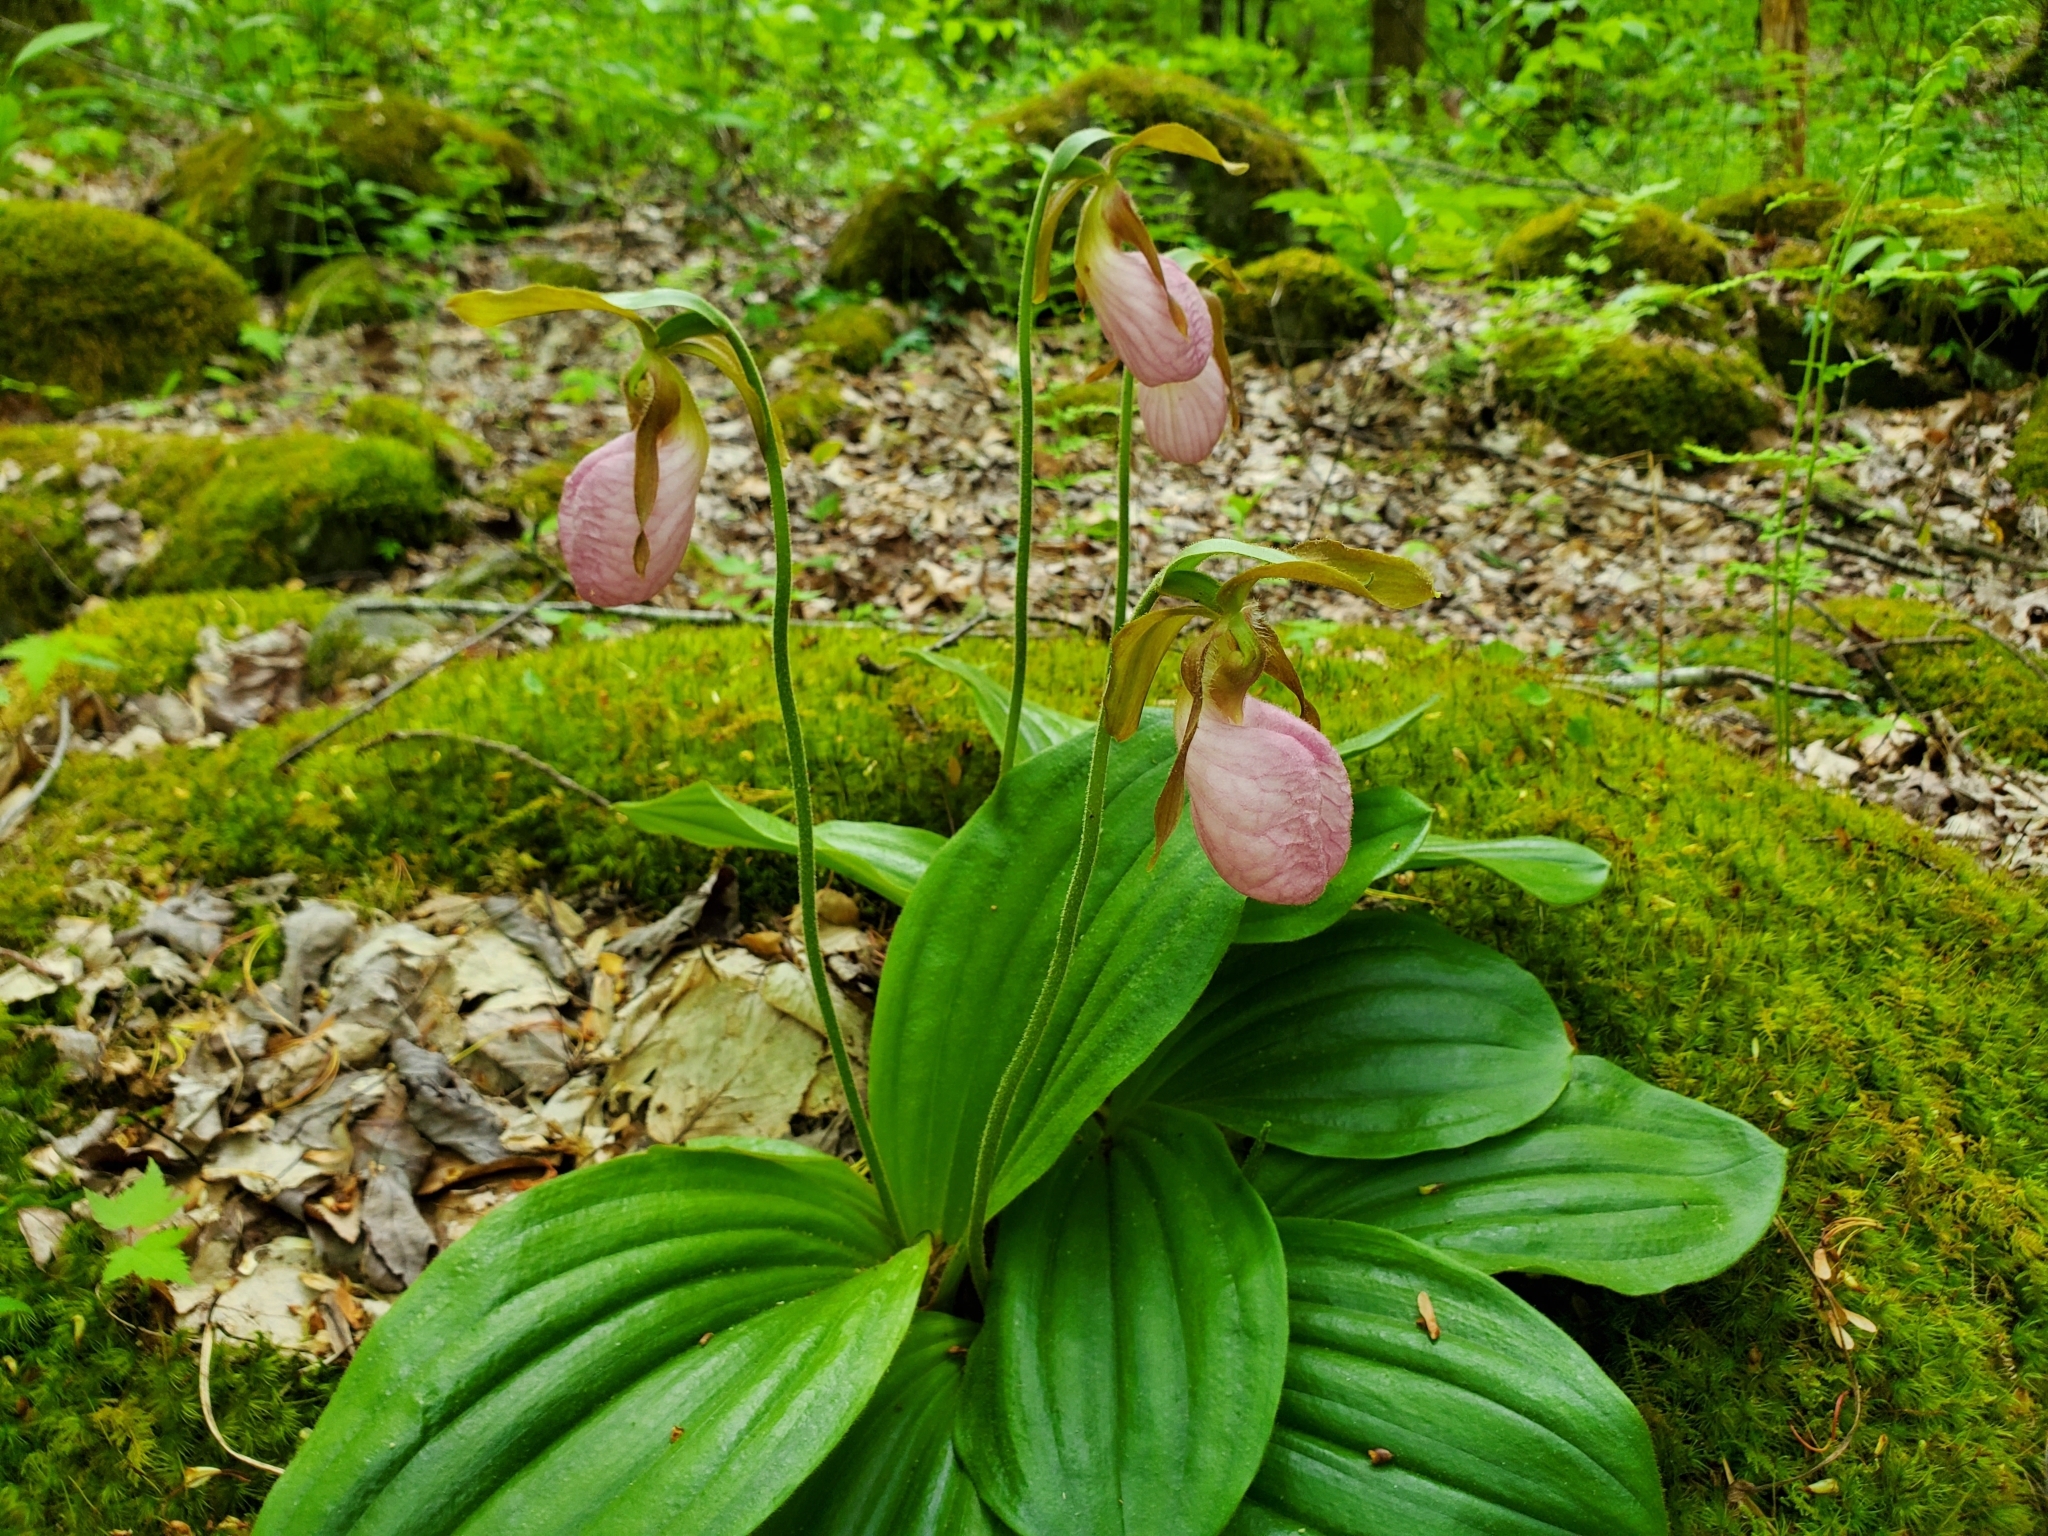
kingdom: Plantae
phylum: Tracheophyta
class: Liliopsida
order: Asparagales
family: Orchidaceae
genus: Cypripedium
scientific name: Cypripedium acaule
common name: Pink lady's-slipper
